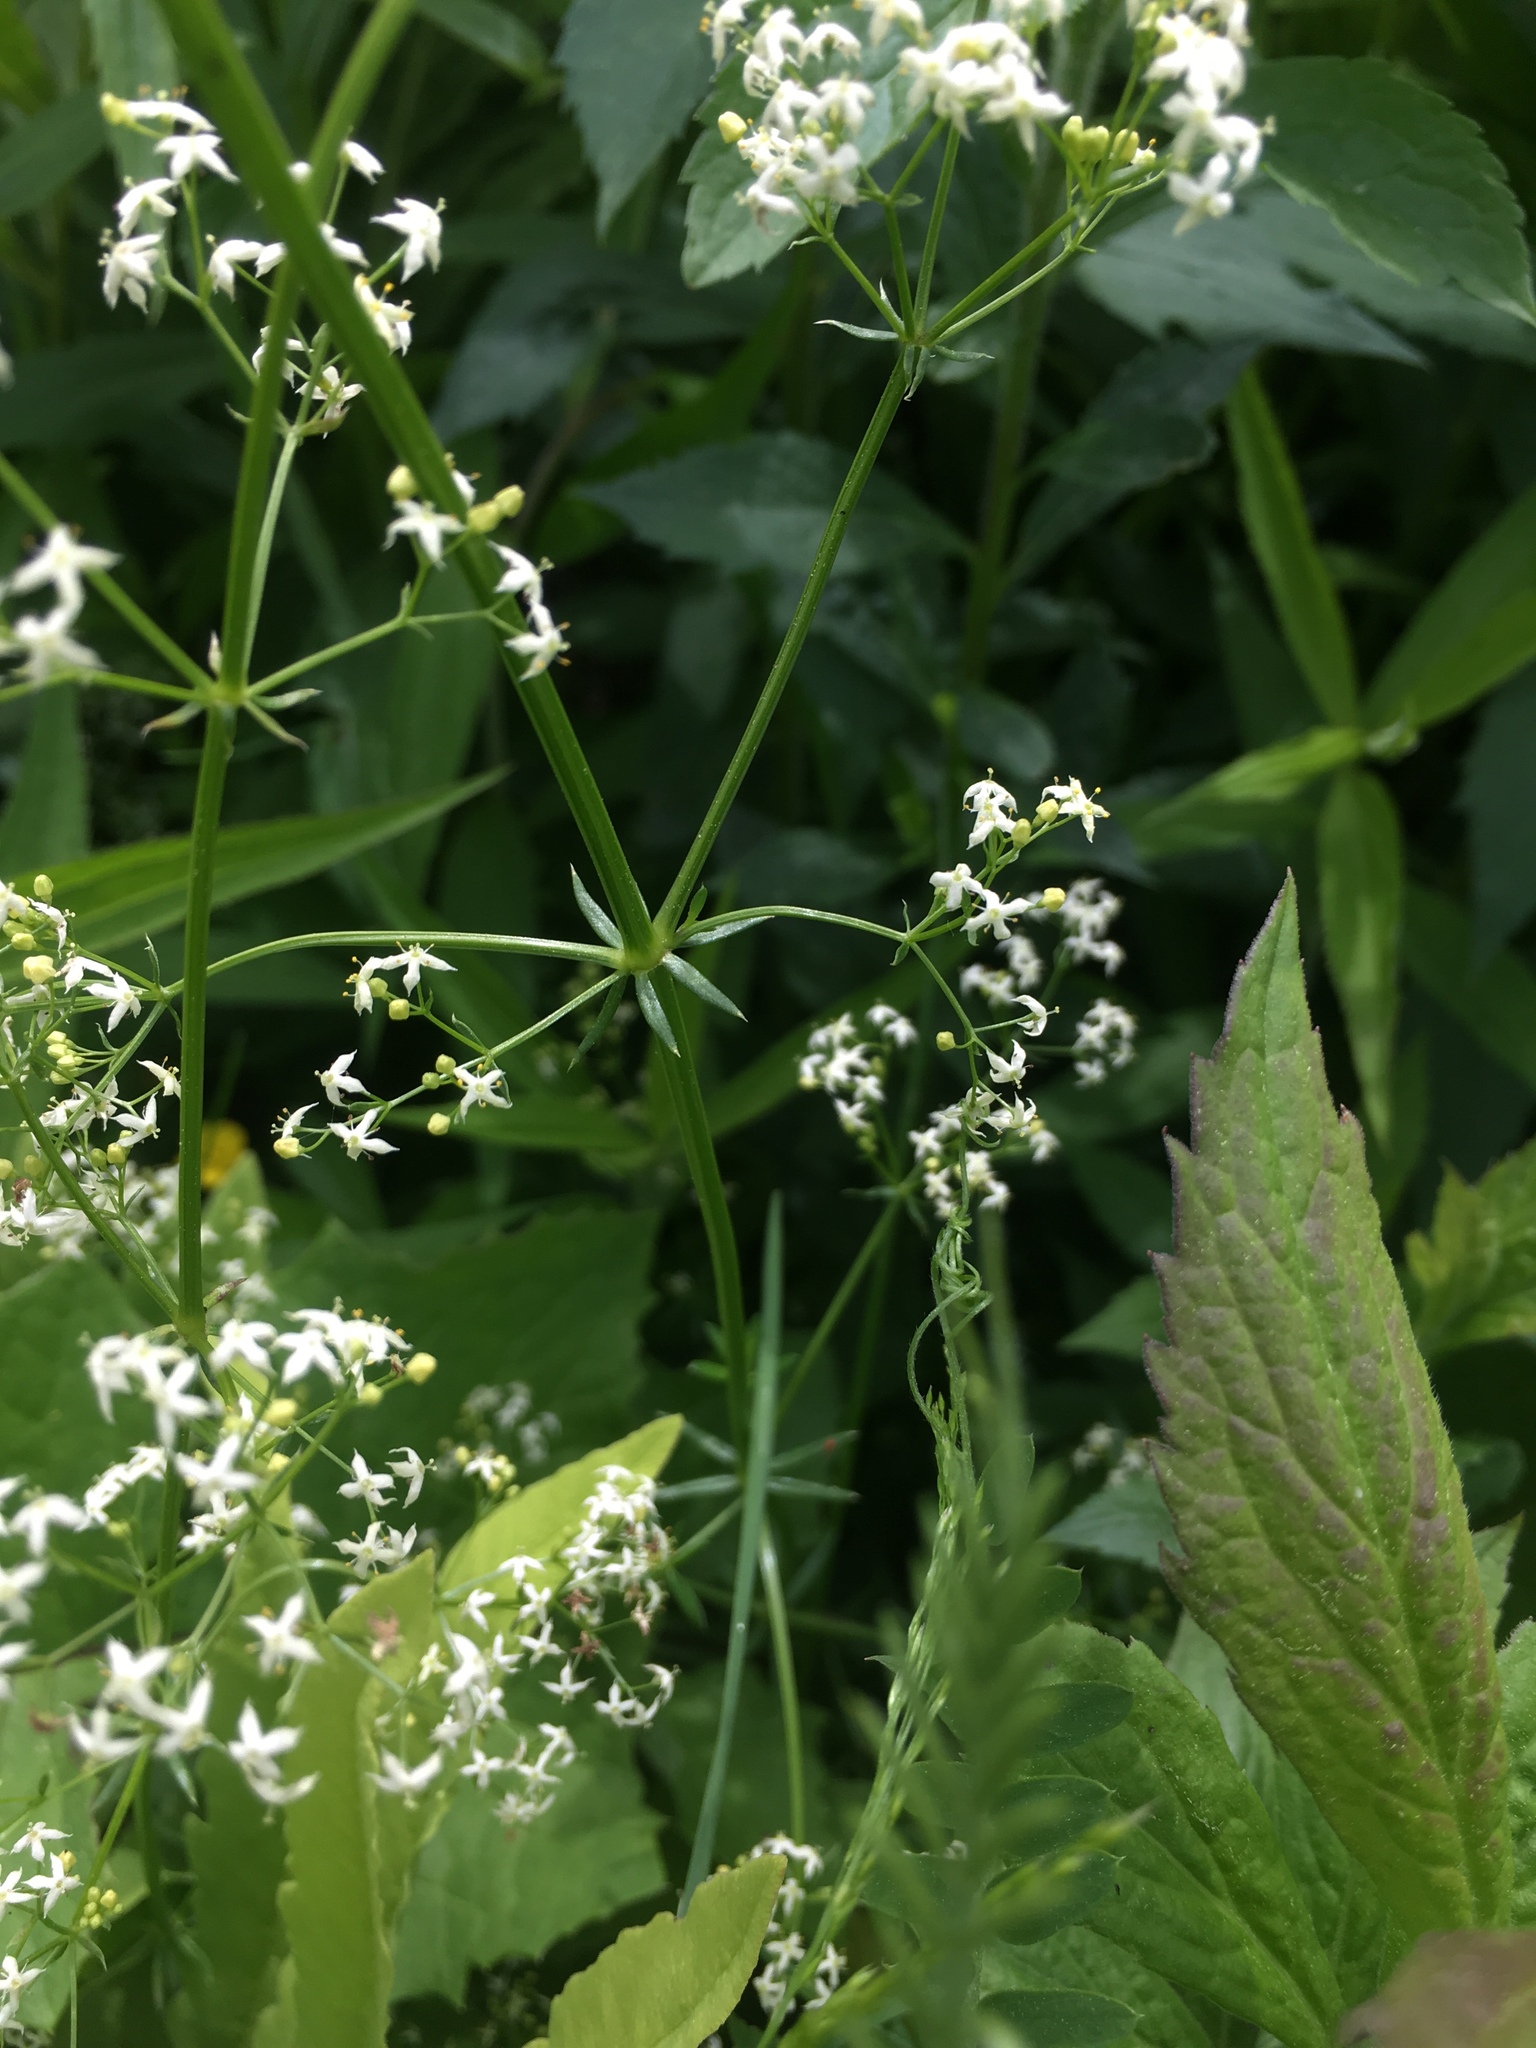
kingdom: Plantae
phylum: Tracheophyta
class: Magnoliopsida
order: Gentianales
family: Rubiaceae
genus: Galium
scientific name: Galium mollugo
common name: Hedge bedstraw
